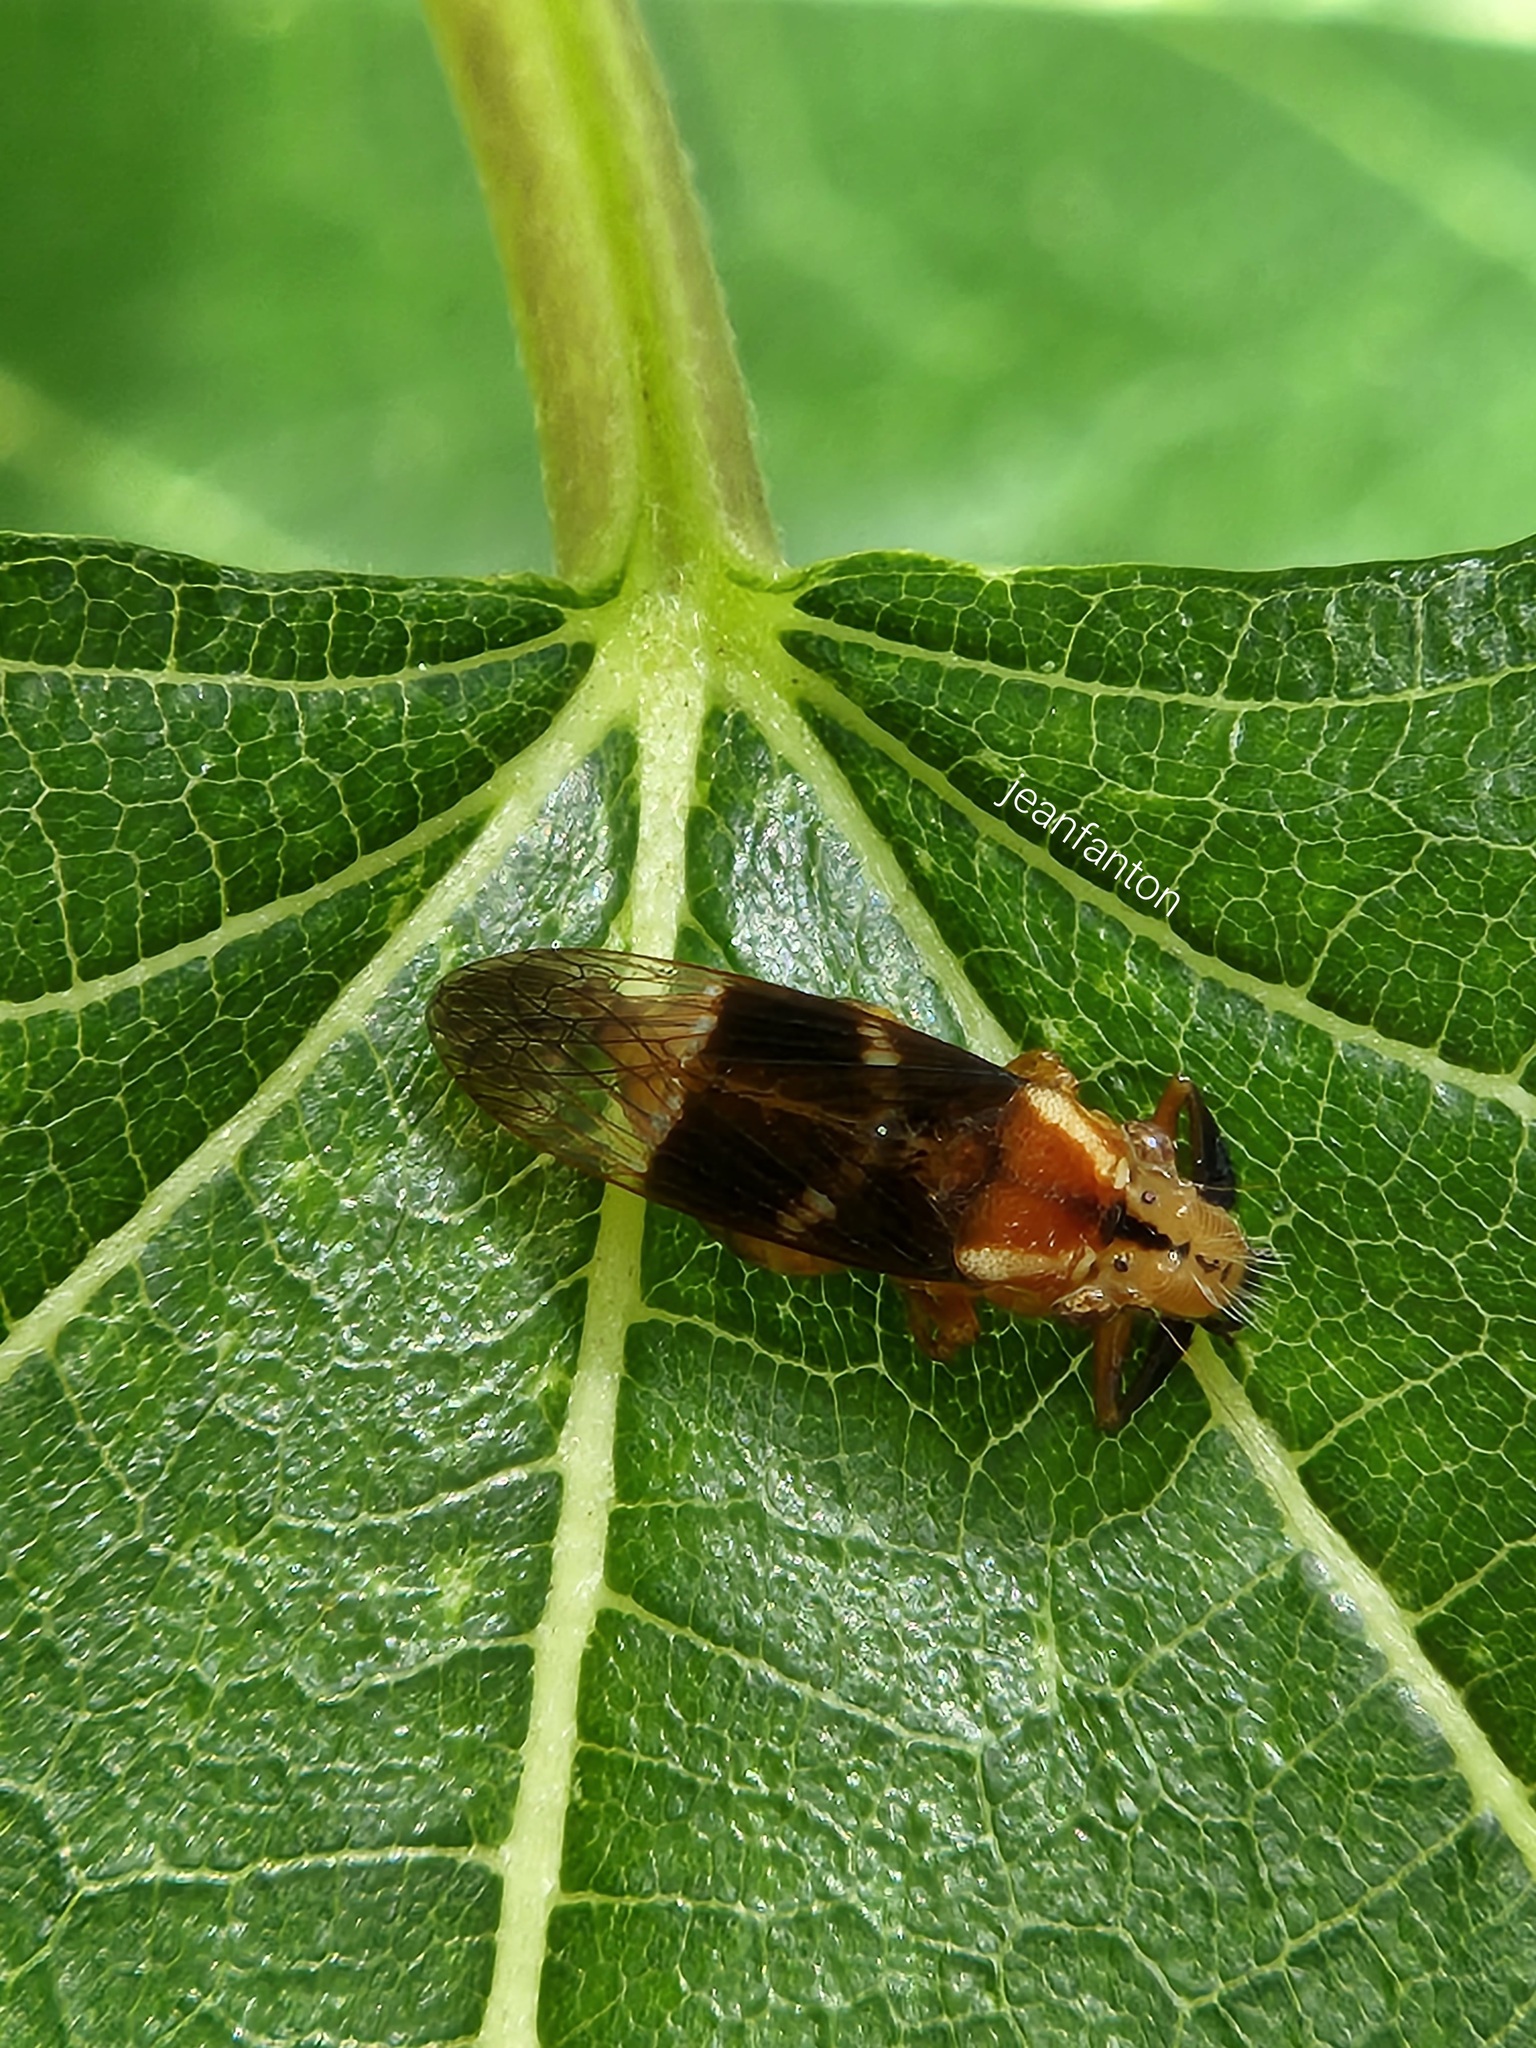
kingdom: Animalia
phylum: Arthropoda
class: Insecta
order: Hemiptera
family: Cicadellidae
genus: Teletusa
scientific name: Teletusa limpida
